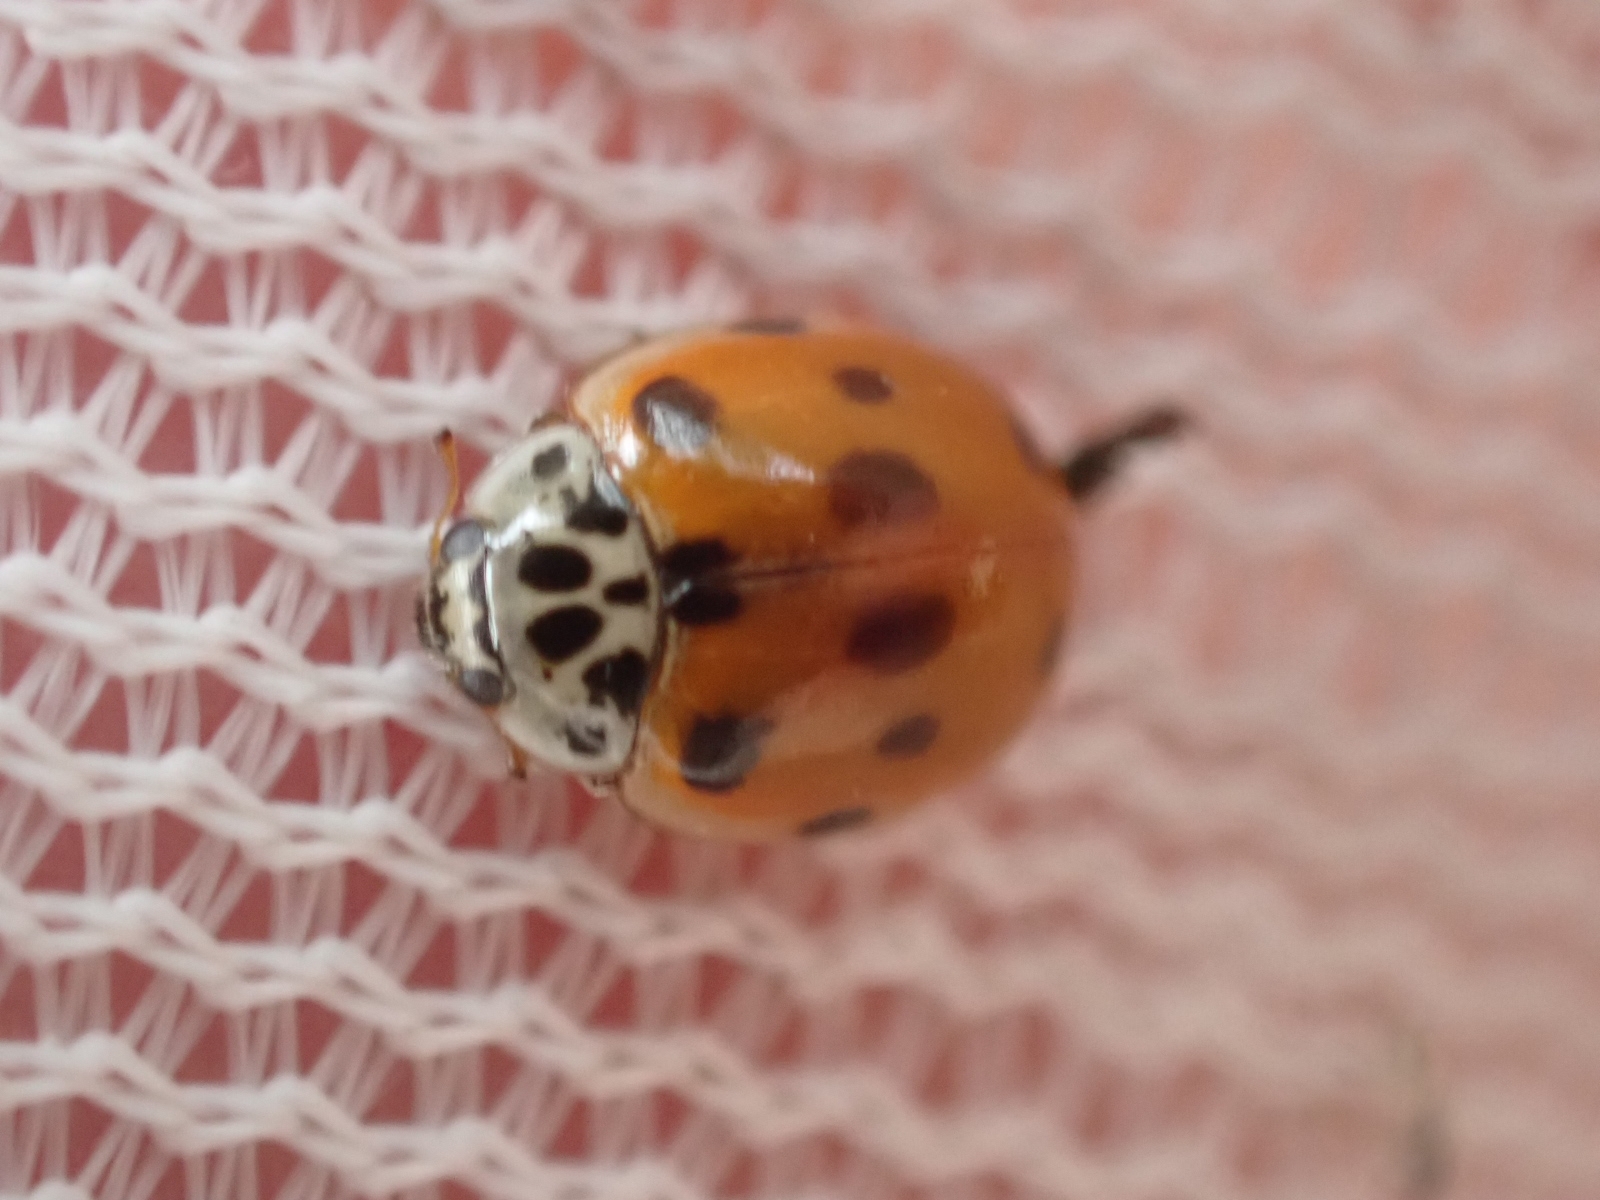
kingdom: Animalia
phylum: Arthropoda
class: Insecta
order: Coleoptera
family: Coccinellidae
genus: Adalia
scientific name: Adalia decempunctata
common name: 10-spot ladybird
